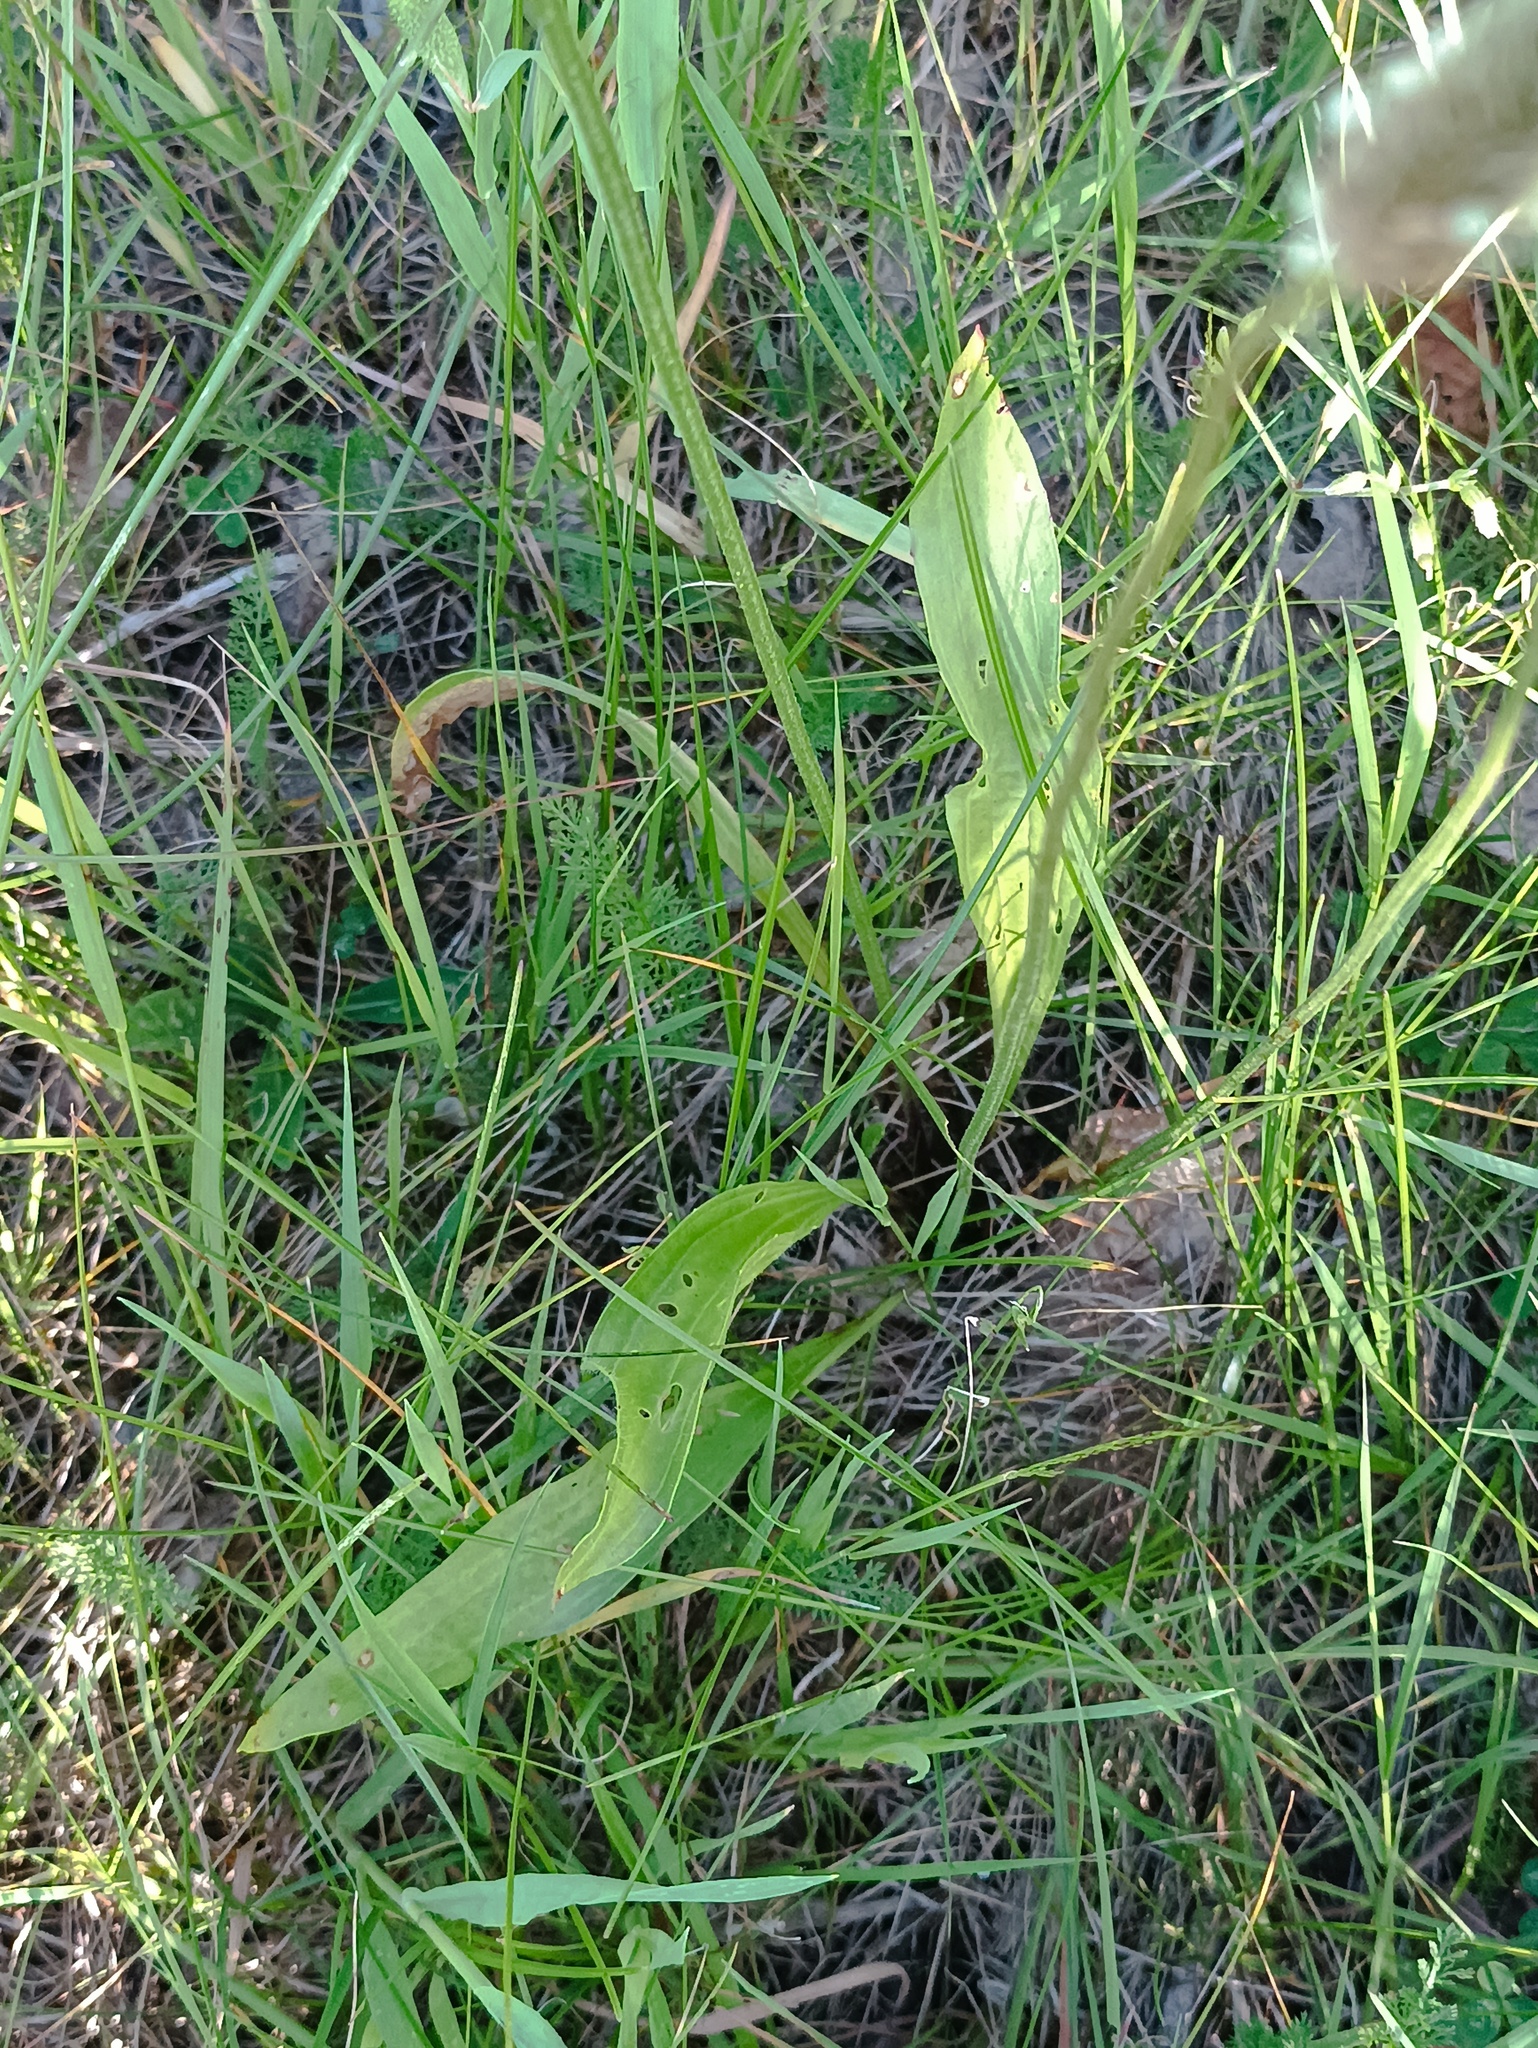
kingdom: Plantae
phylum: Tracheophyta
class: Magnoliopsida
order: Lamiales
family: Plantaginaceae
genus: Plantago
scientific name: Plantago lanceolata
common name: Ribwort plantain
